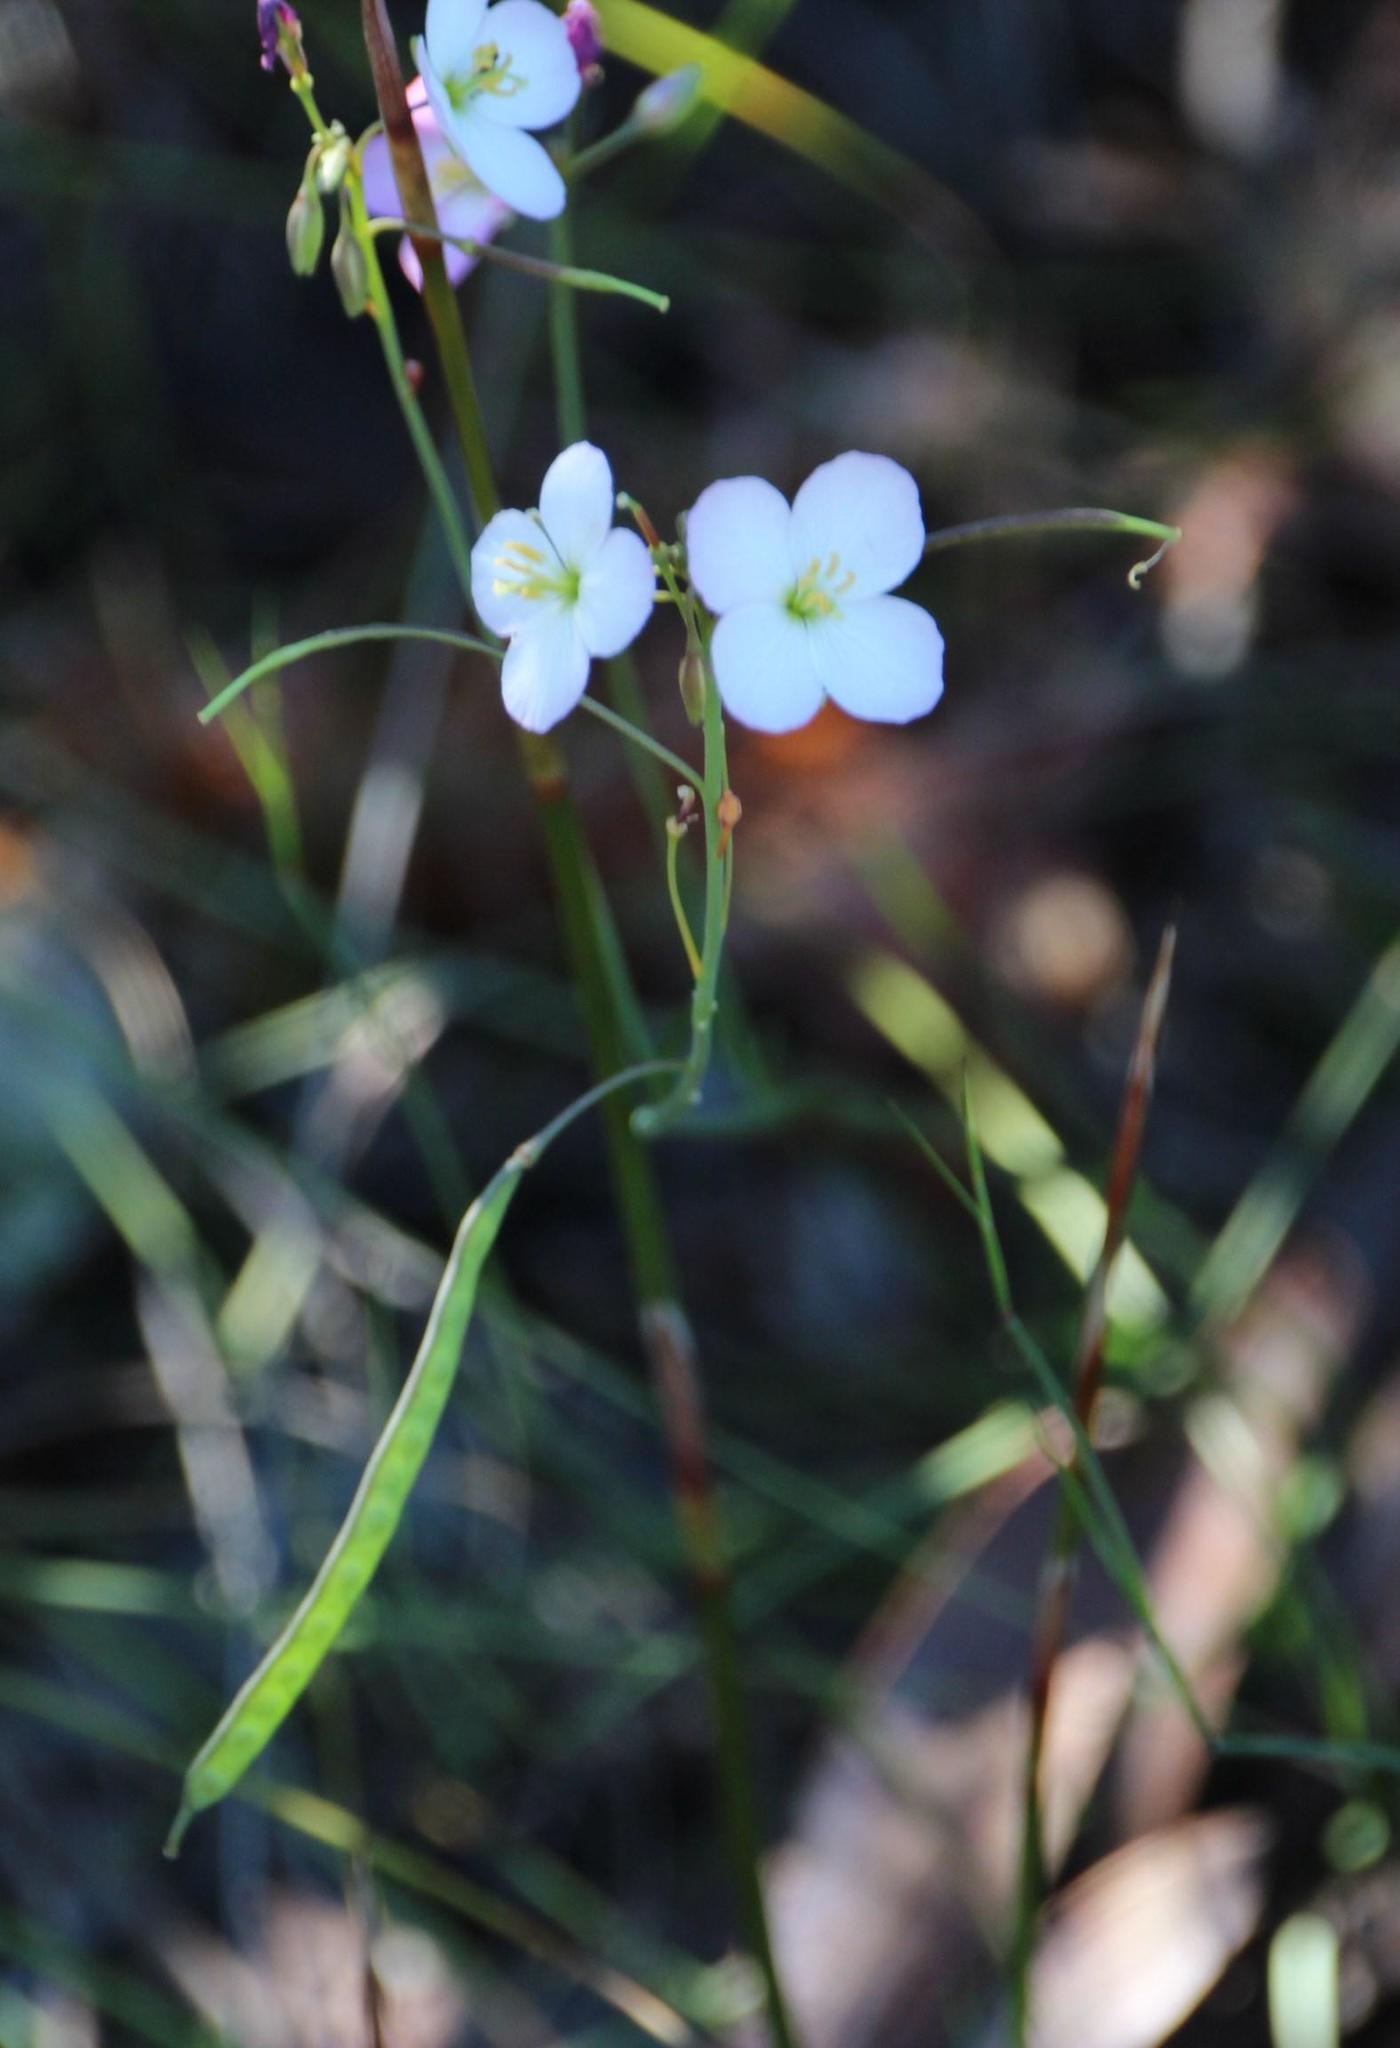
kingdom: Plantae
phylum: Tracheophyta
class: Magnoliopsida
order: Brassicales
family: Brassicaceae
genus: Heliophila
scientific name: Heliophila carnosa
